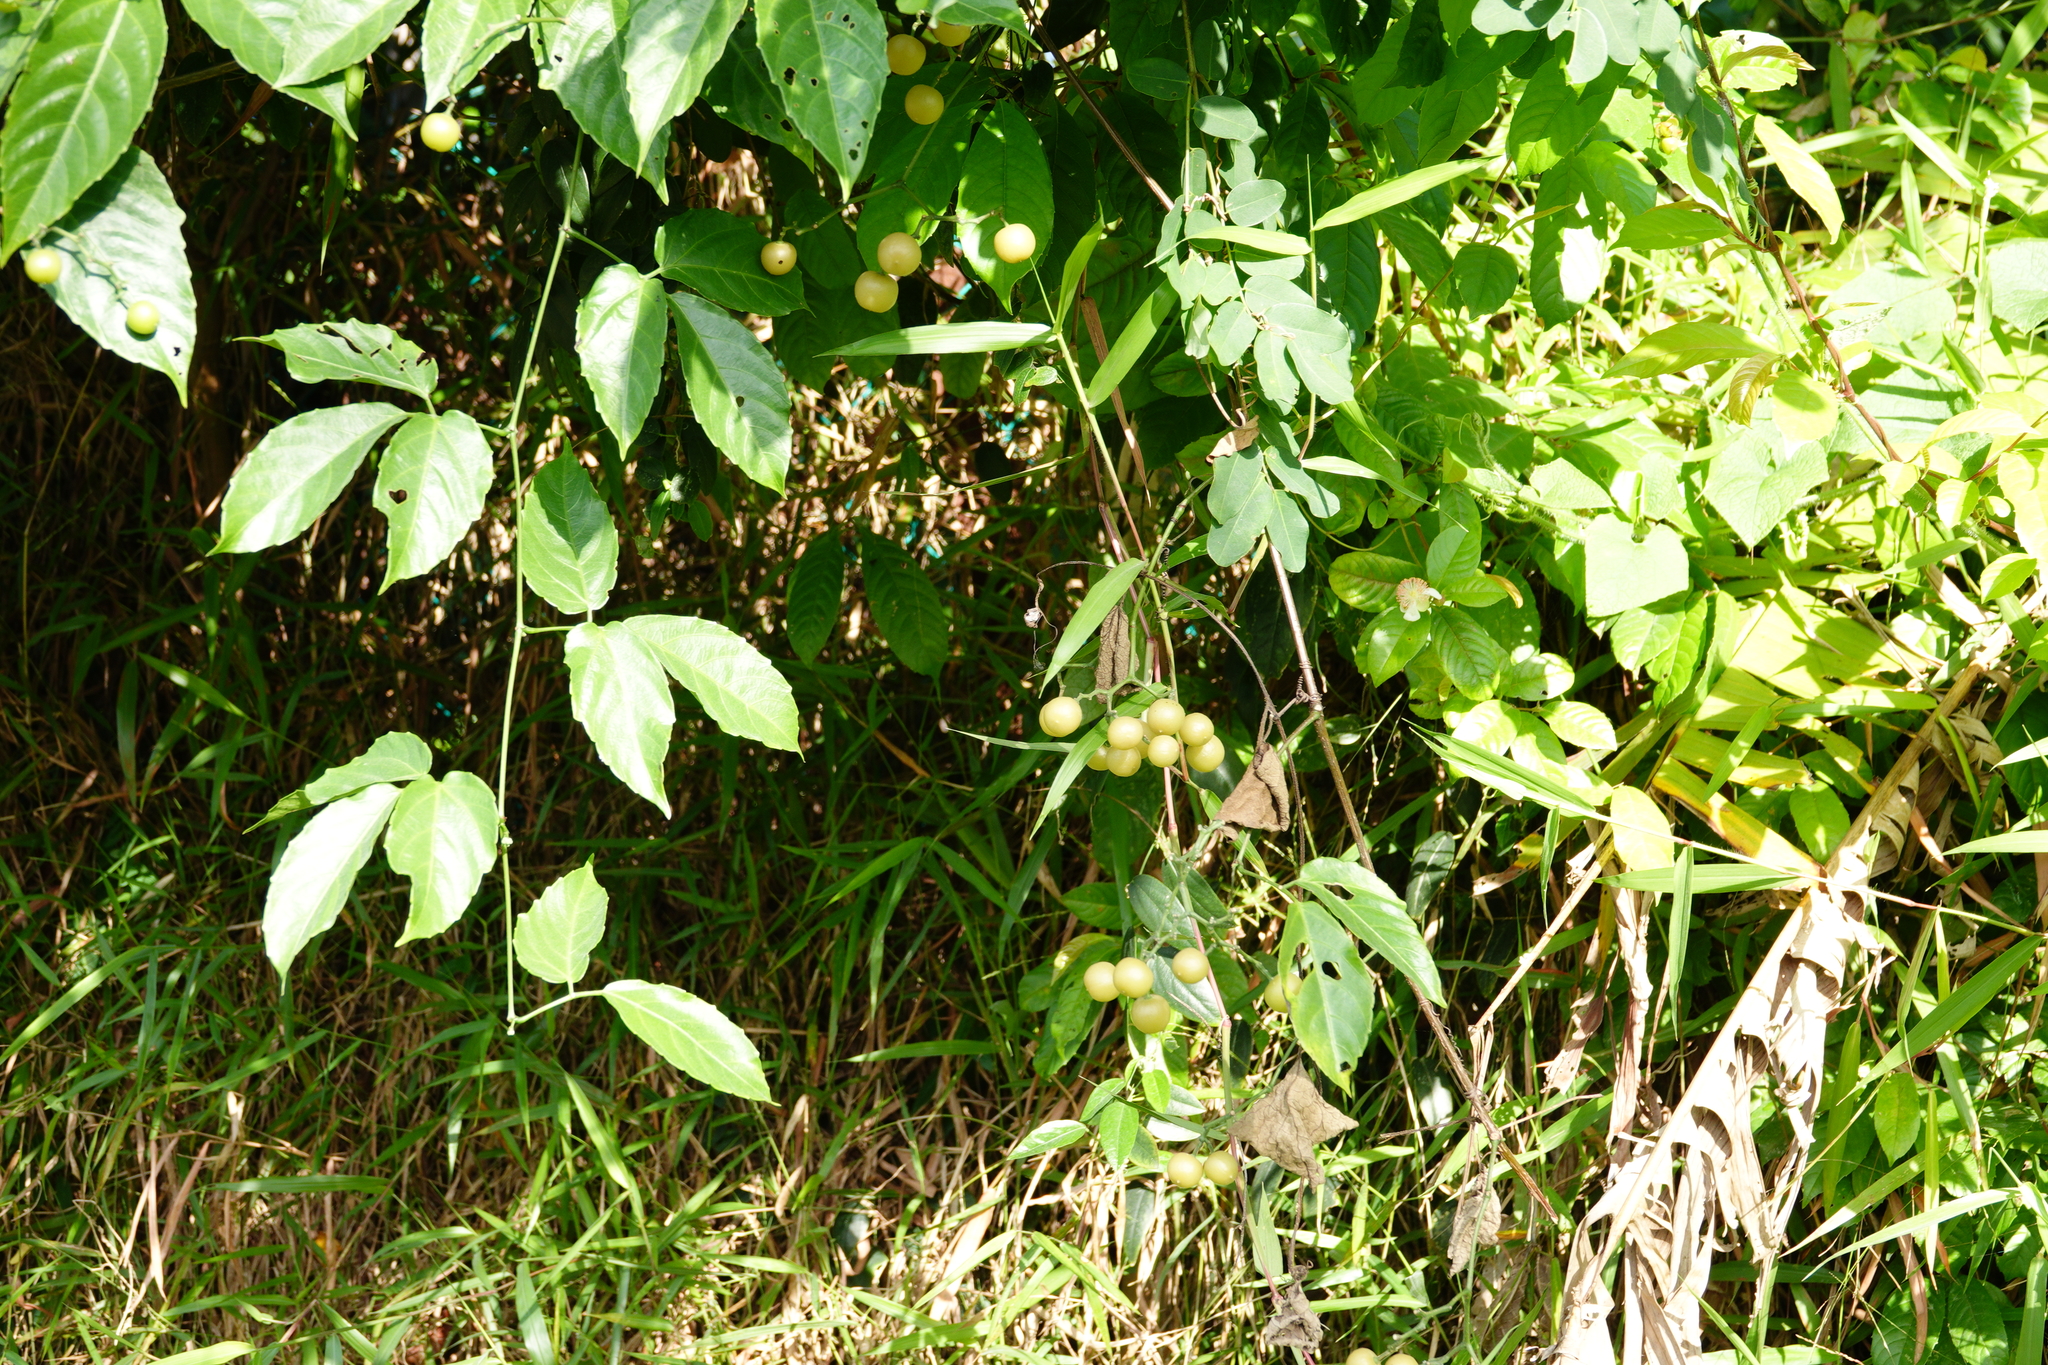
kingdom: Plantae
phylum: Tracheophyta
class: Magnoliopsida
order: Vitales
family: Vitaceae
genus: Cayratia
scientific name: Cayratia mollissima
